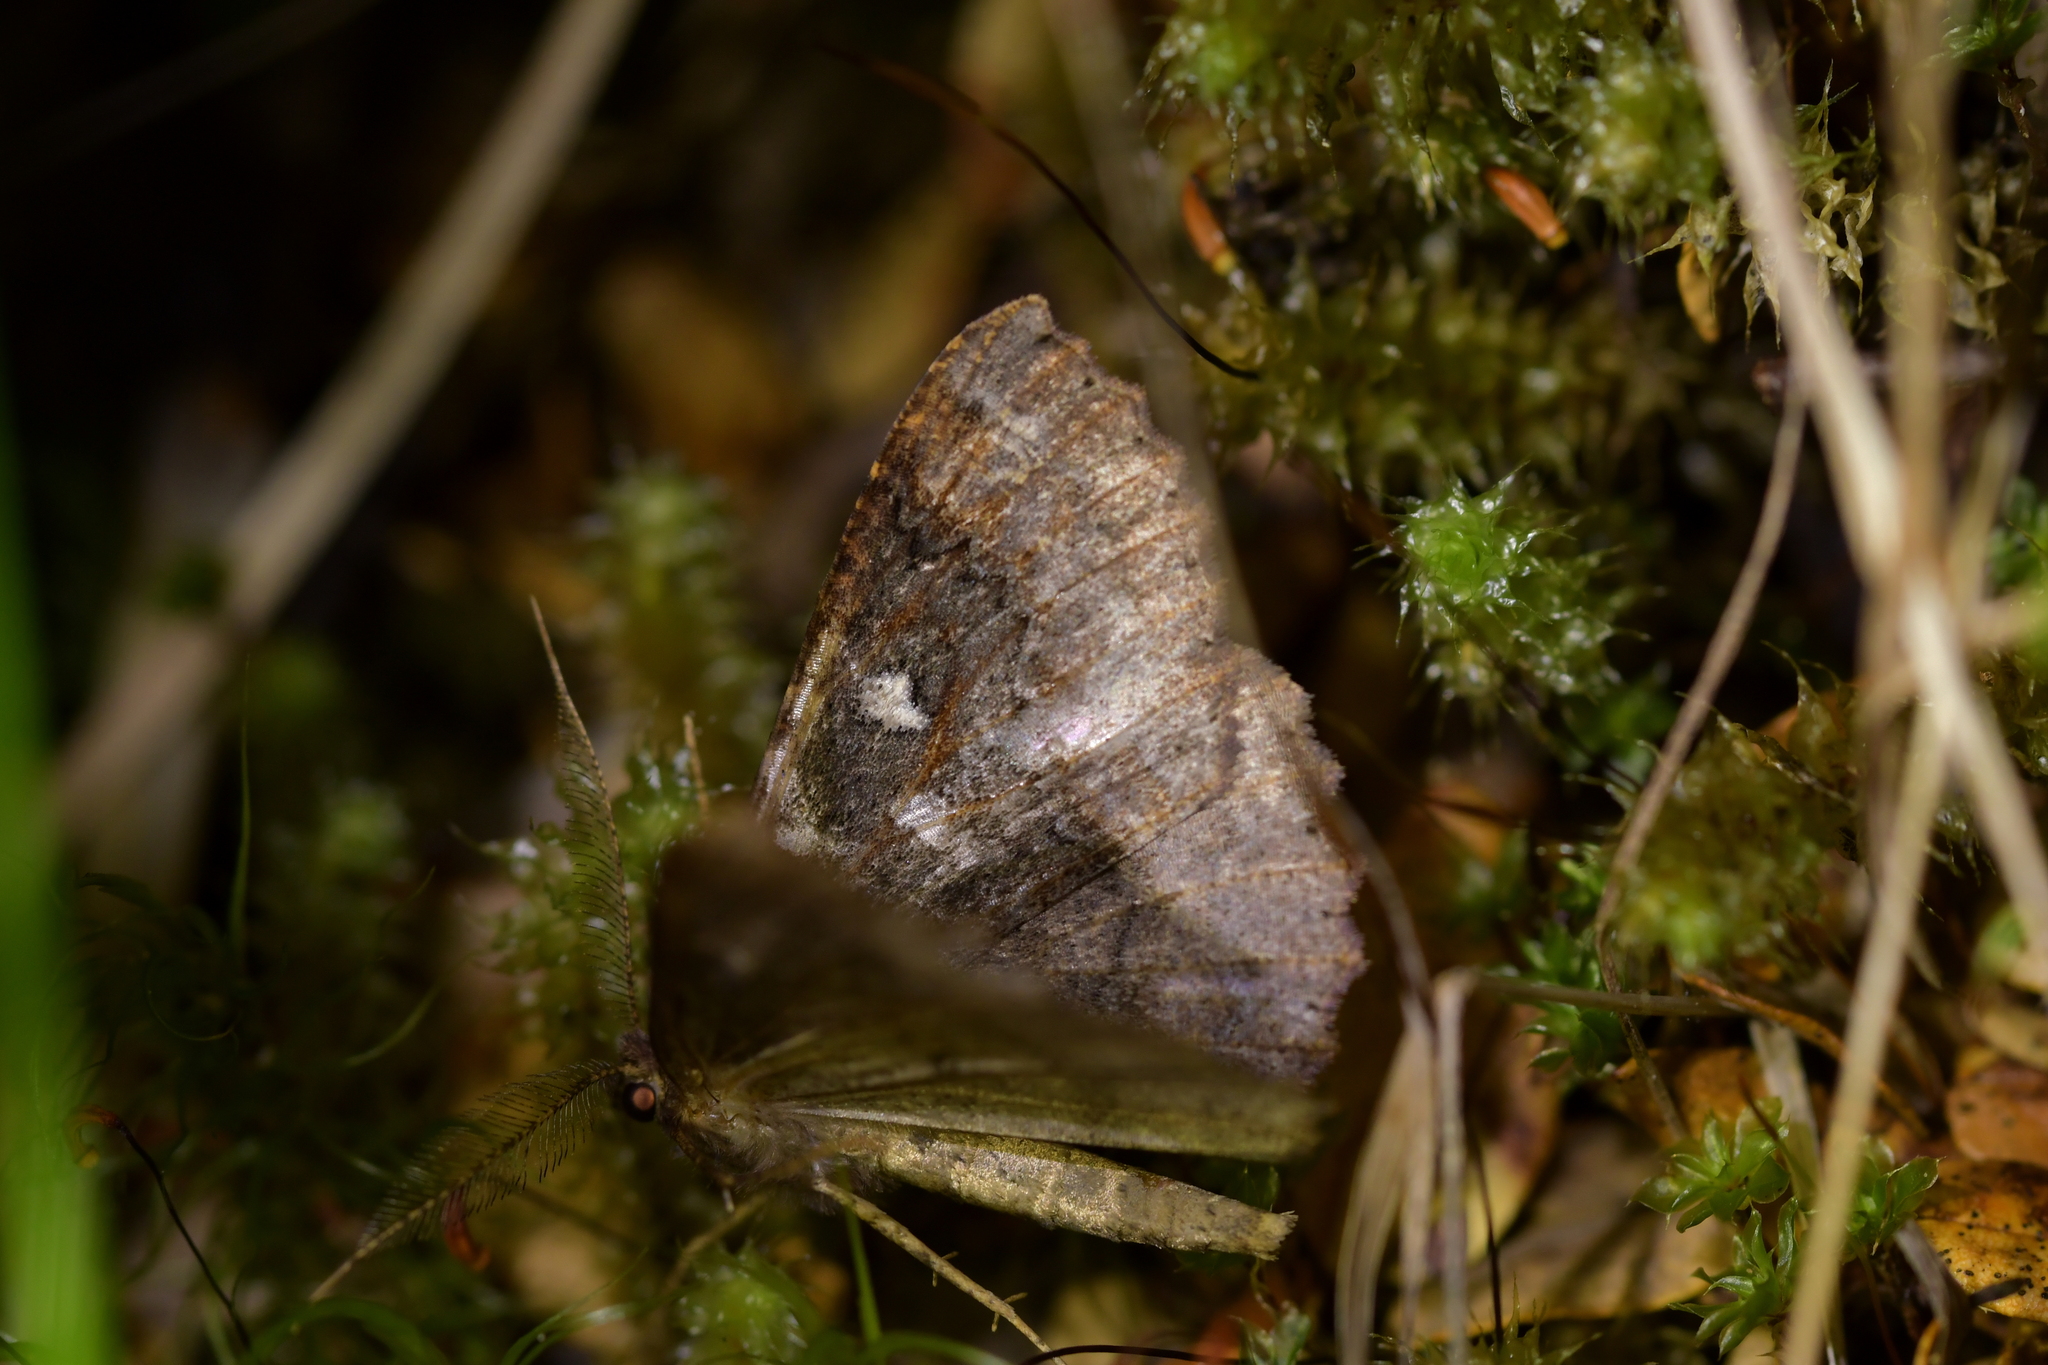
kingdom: Animalia
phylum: Arthropoda
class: Insecta
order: Lepidoptera
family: Geometridae
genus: Cleora
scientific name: Cleora scriptaria
